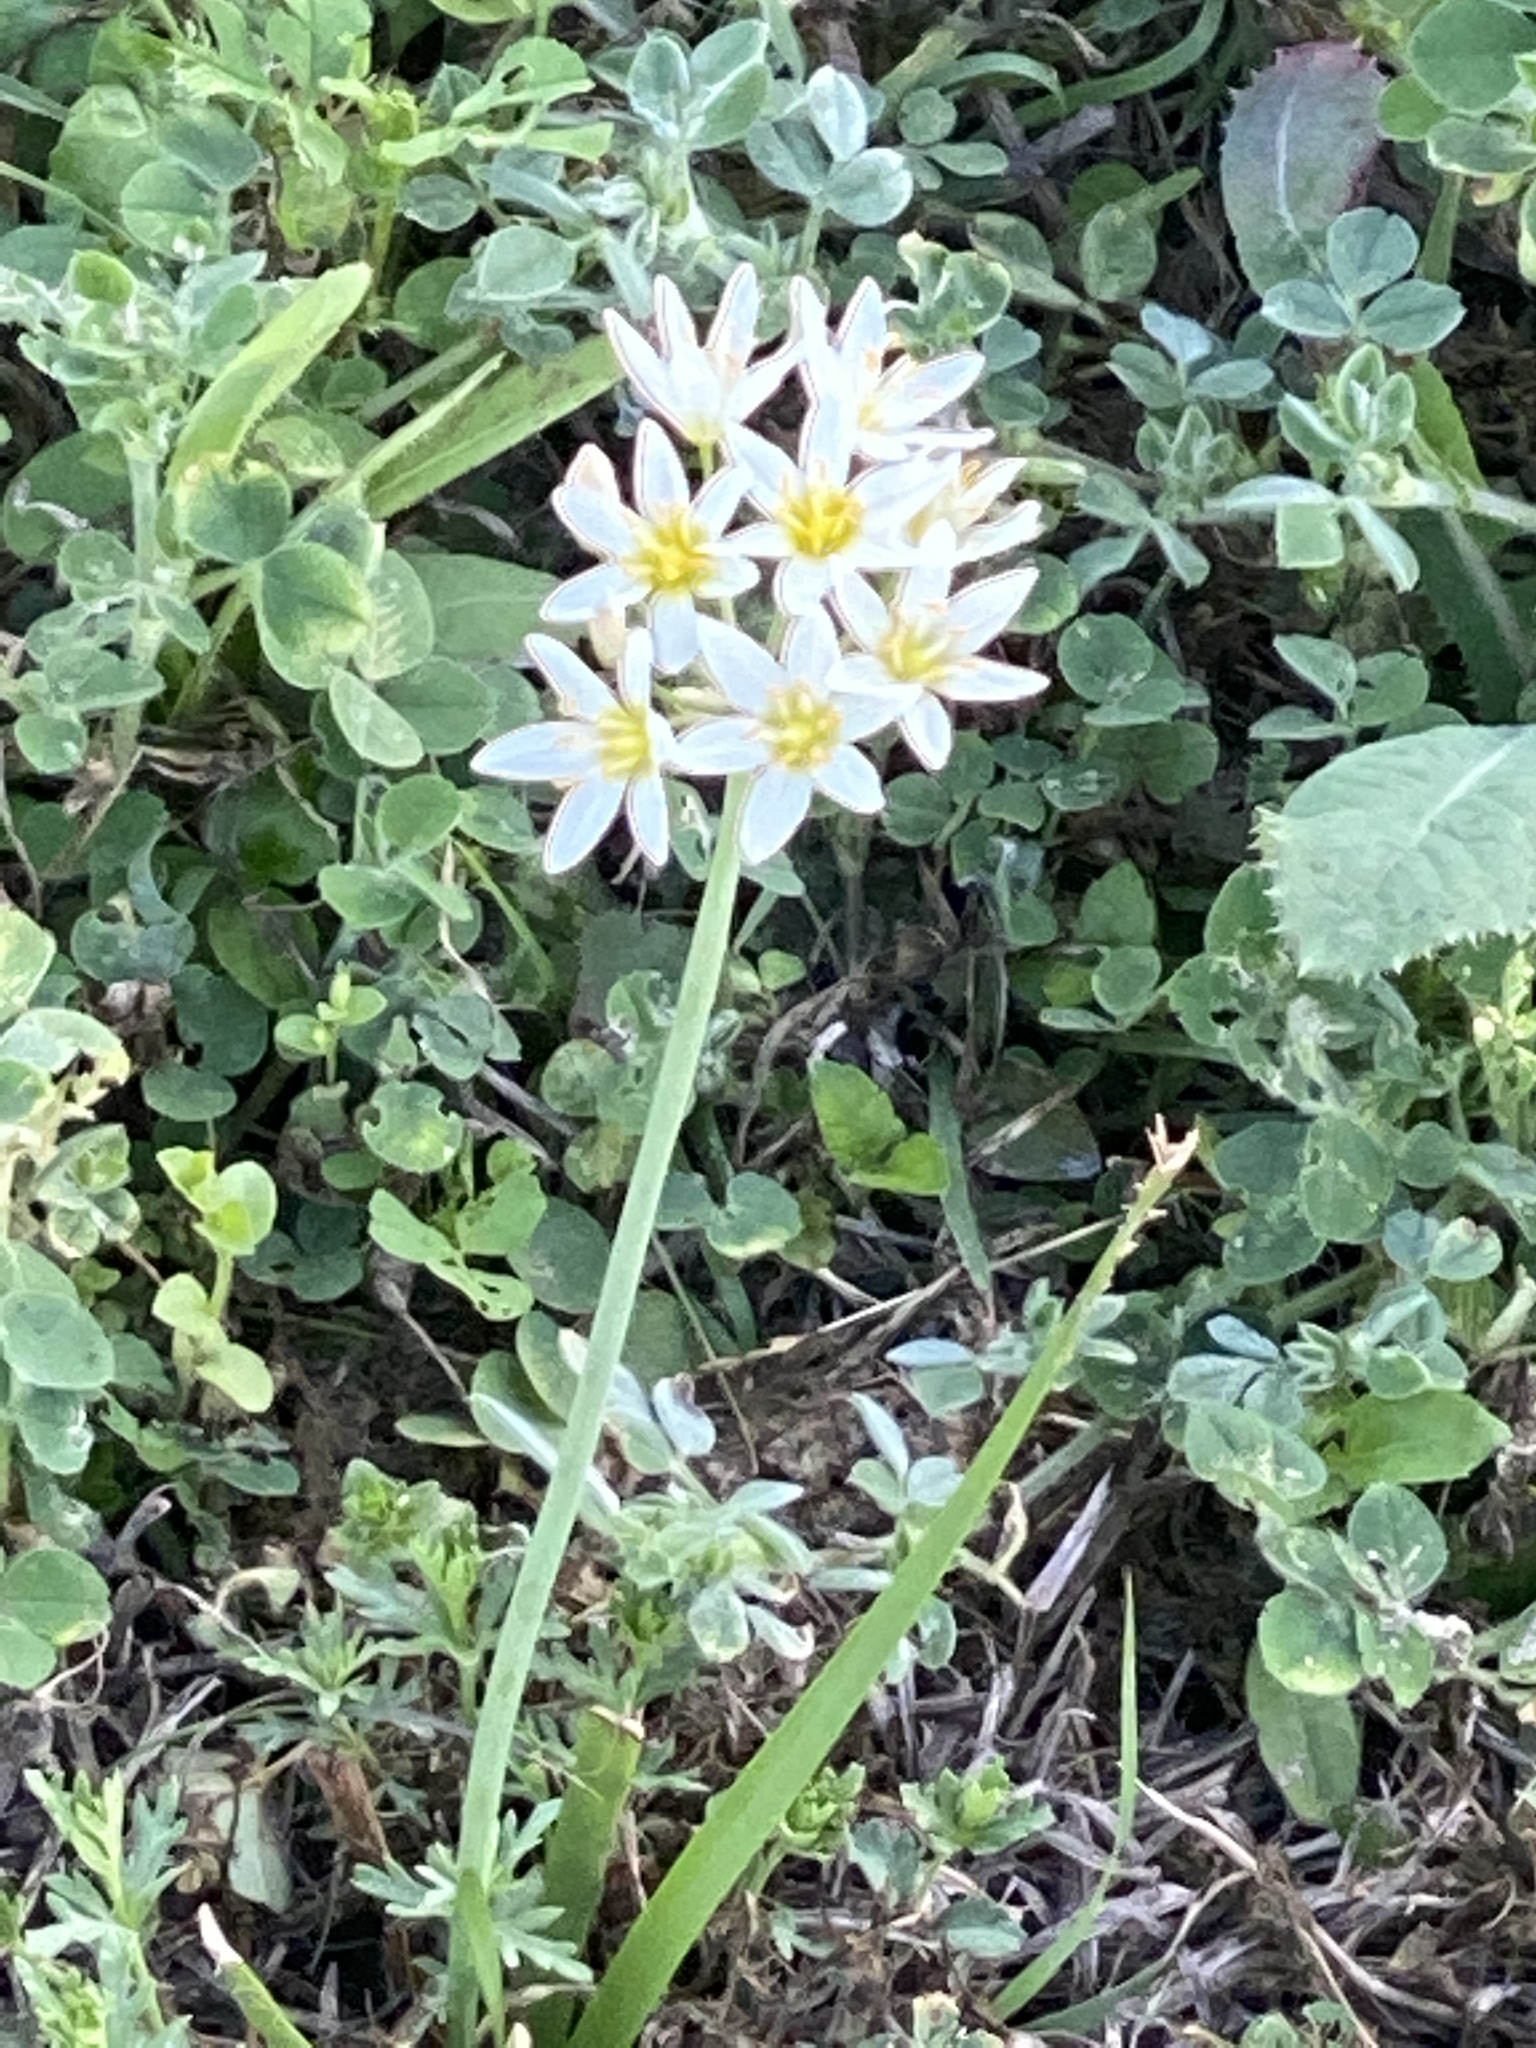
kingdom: Plantae
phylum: Tracheophyta
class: Liliopsida
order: Asparagales
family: Amaryllidaceae
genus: Nothoscordum
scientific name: Nothoscordum bivalve
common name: Crow-poison
